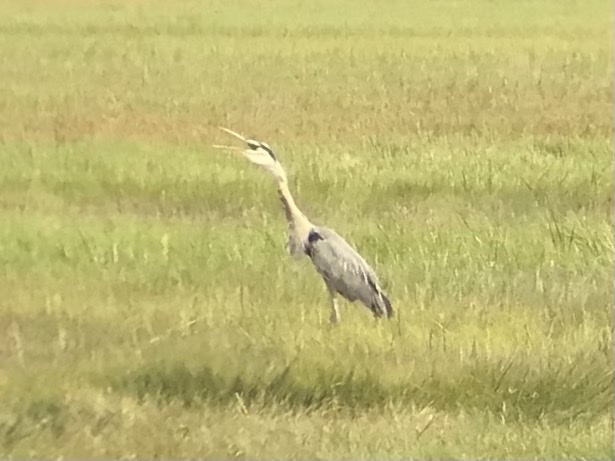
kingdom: Animalia
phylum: Chordata
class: Aves
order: Pelecaniformes
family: Ardeidae
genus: Ardea
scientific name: Ardea herodias
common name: Great blue heron
